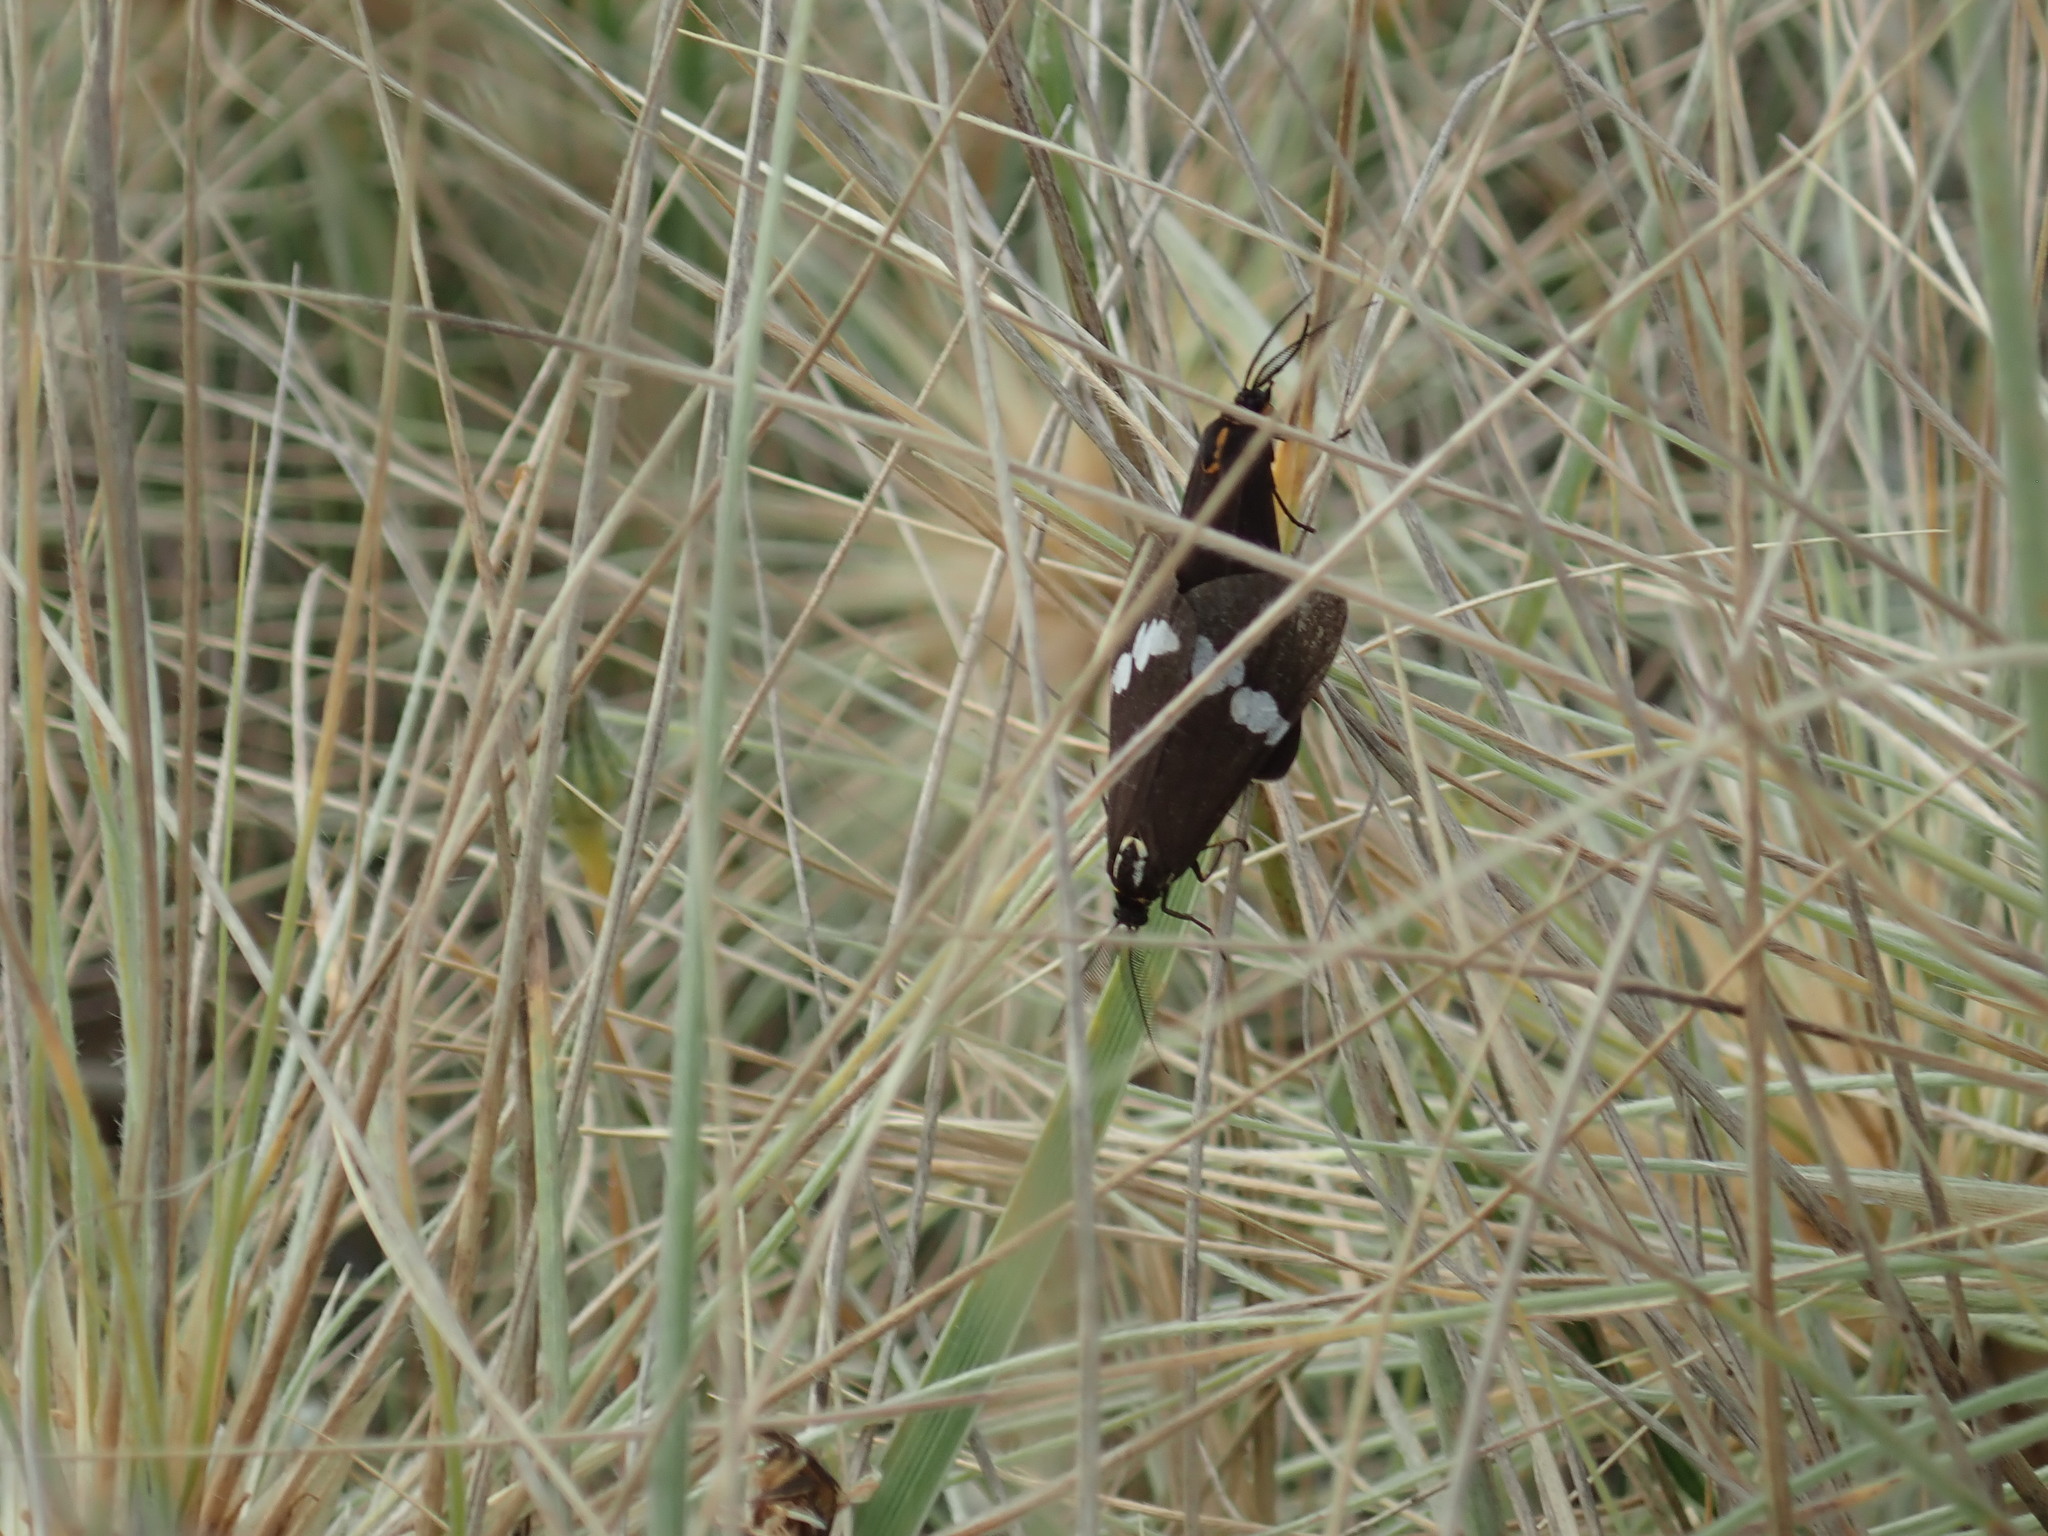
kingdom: Animalia
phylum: Arthropoda
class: Insecta
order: Lepidoptera
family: Erebidae
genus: Nyctemera
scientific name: Nyctemera annulatum
